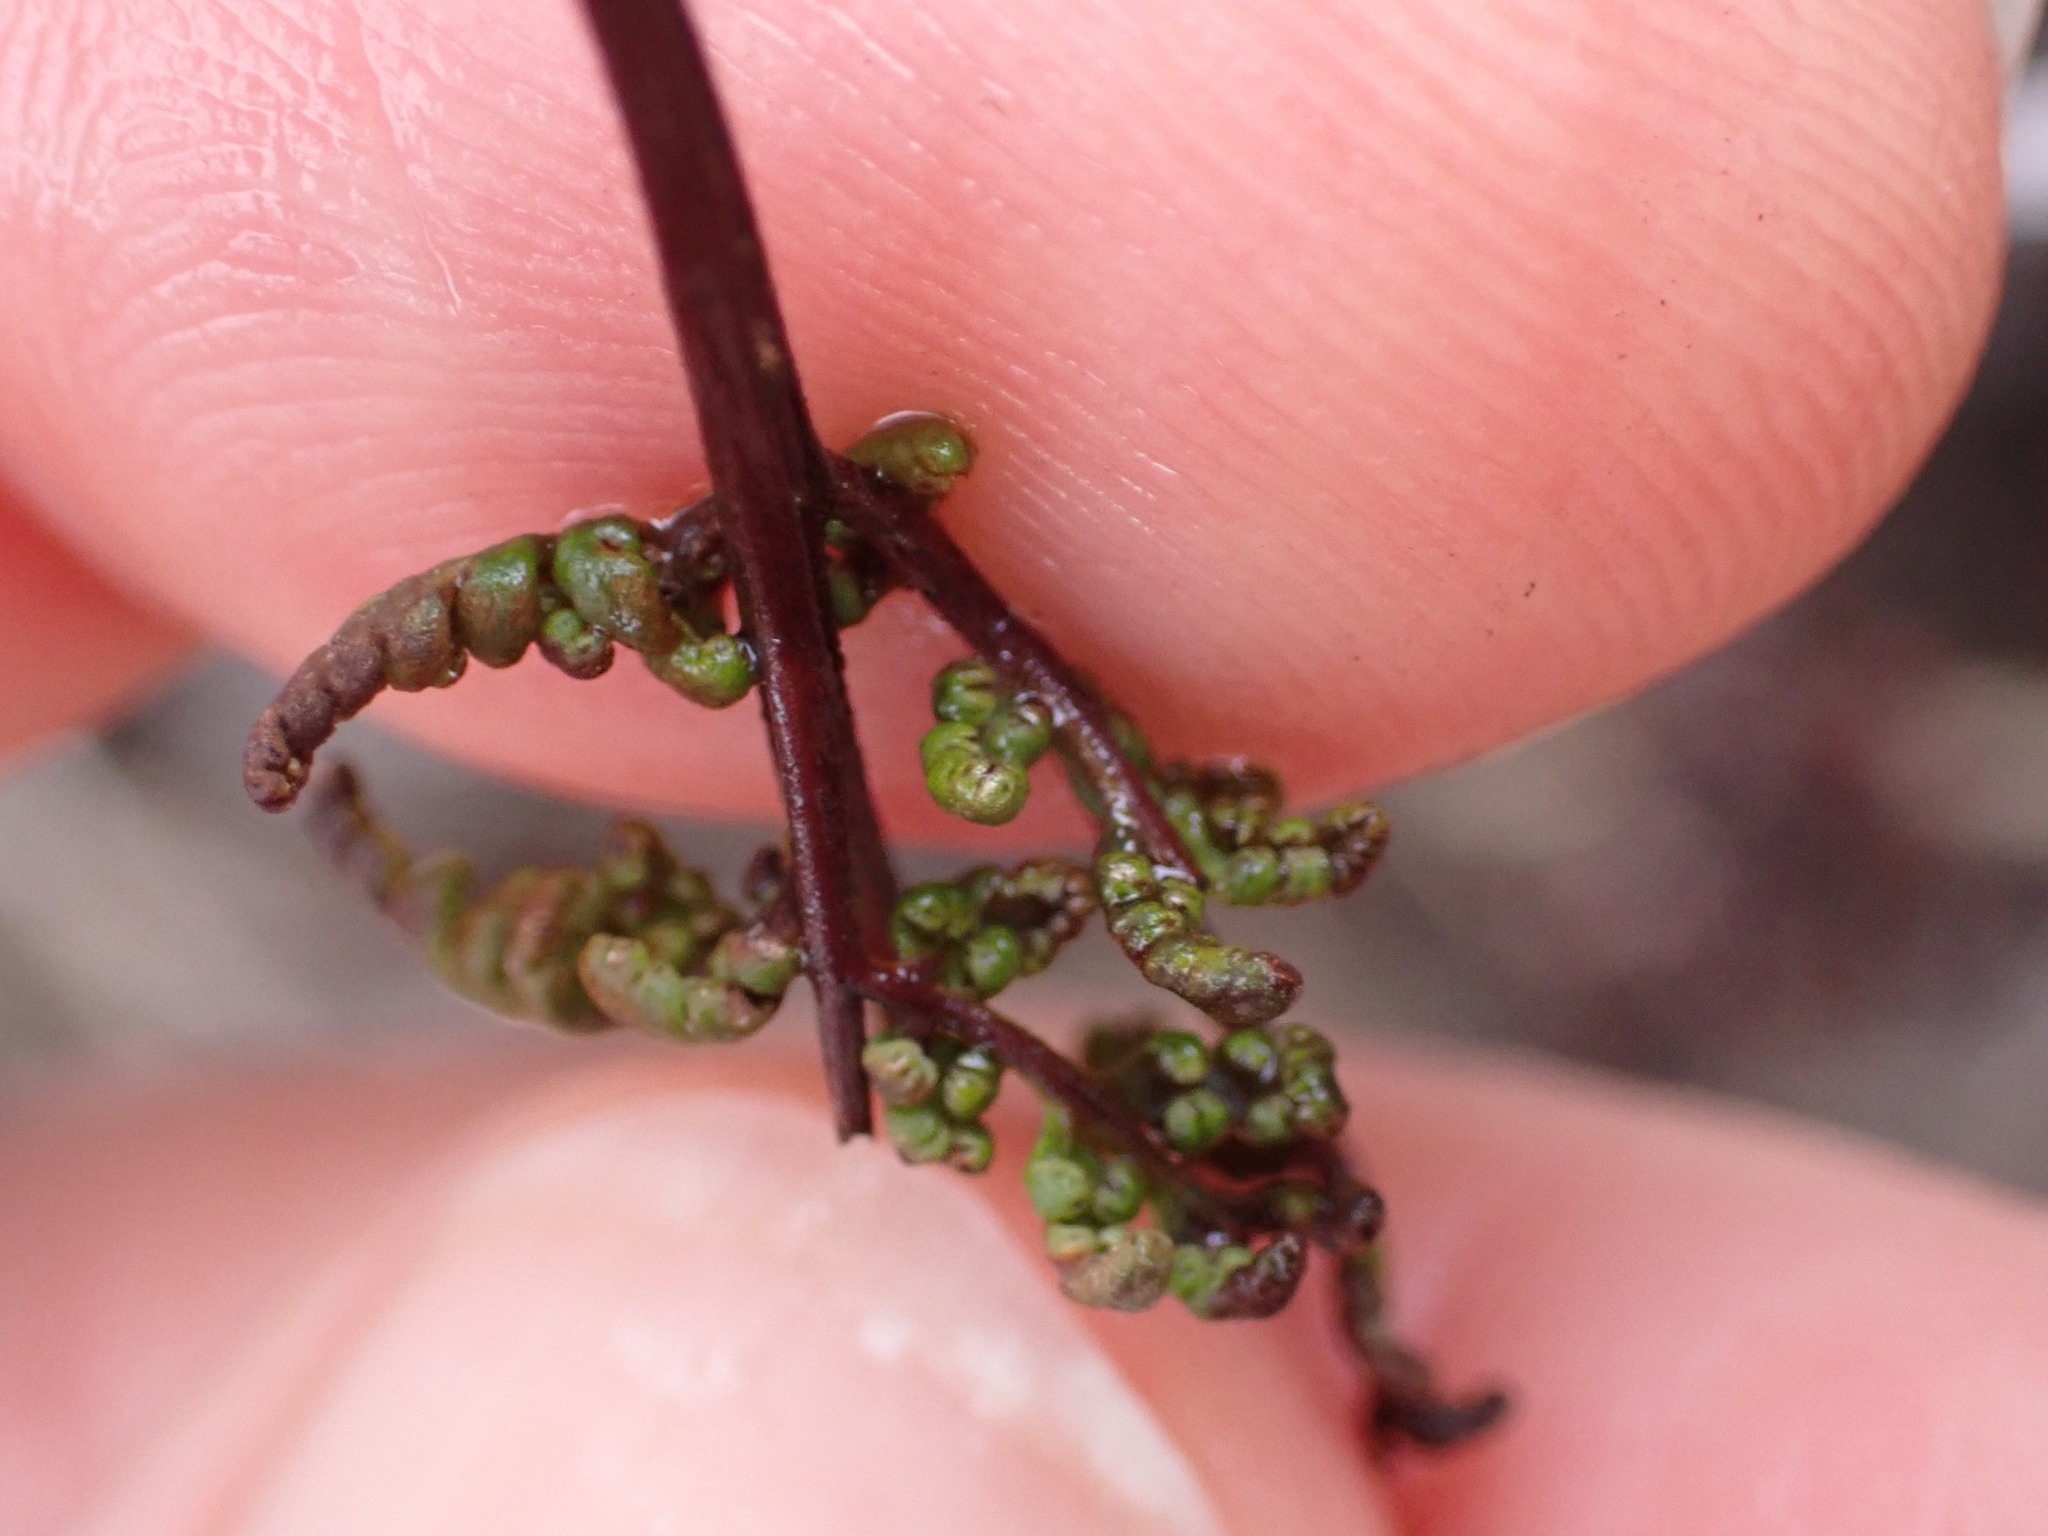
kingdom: Plantae
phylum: Tracheophyta
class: Polypodiopsida
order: Polypodiales
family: Pteridaceae
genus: Cheilanthes
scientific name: Cheilanthes sieberi
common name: Mulga fern
